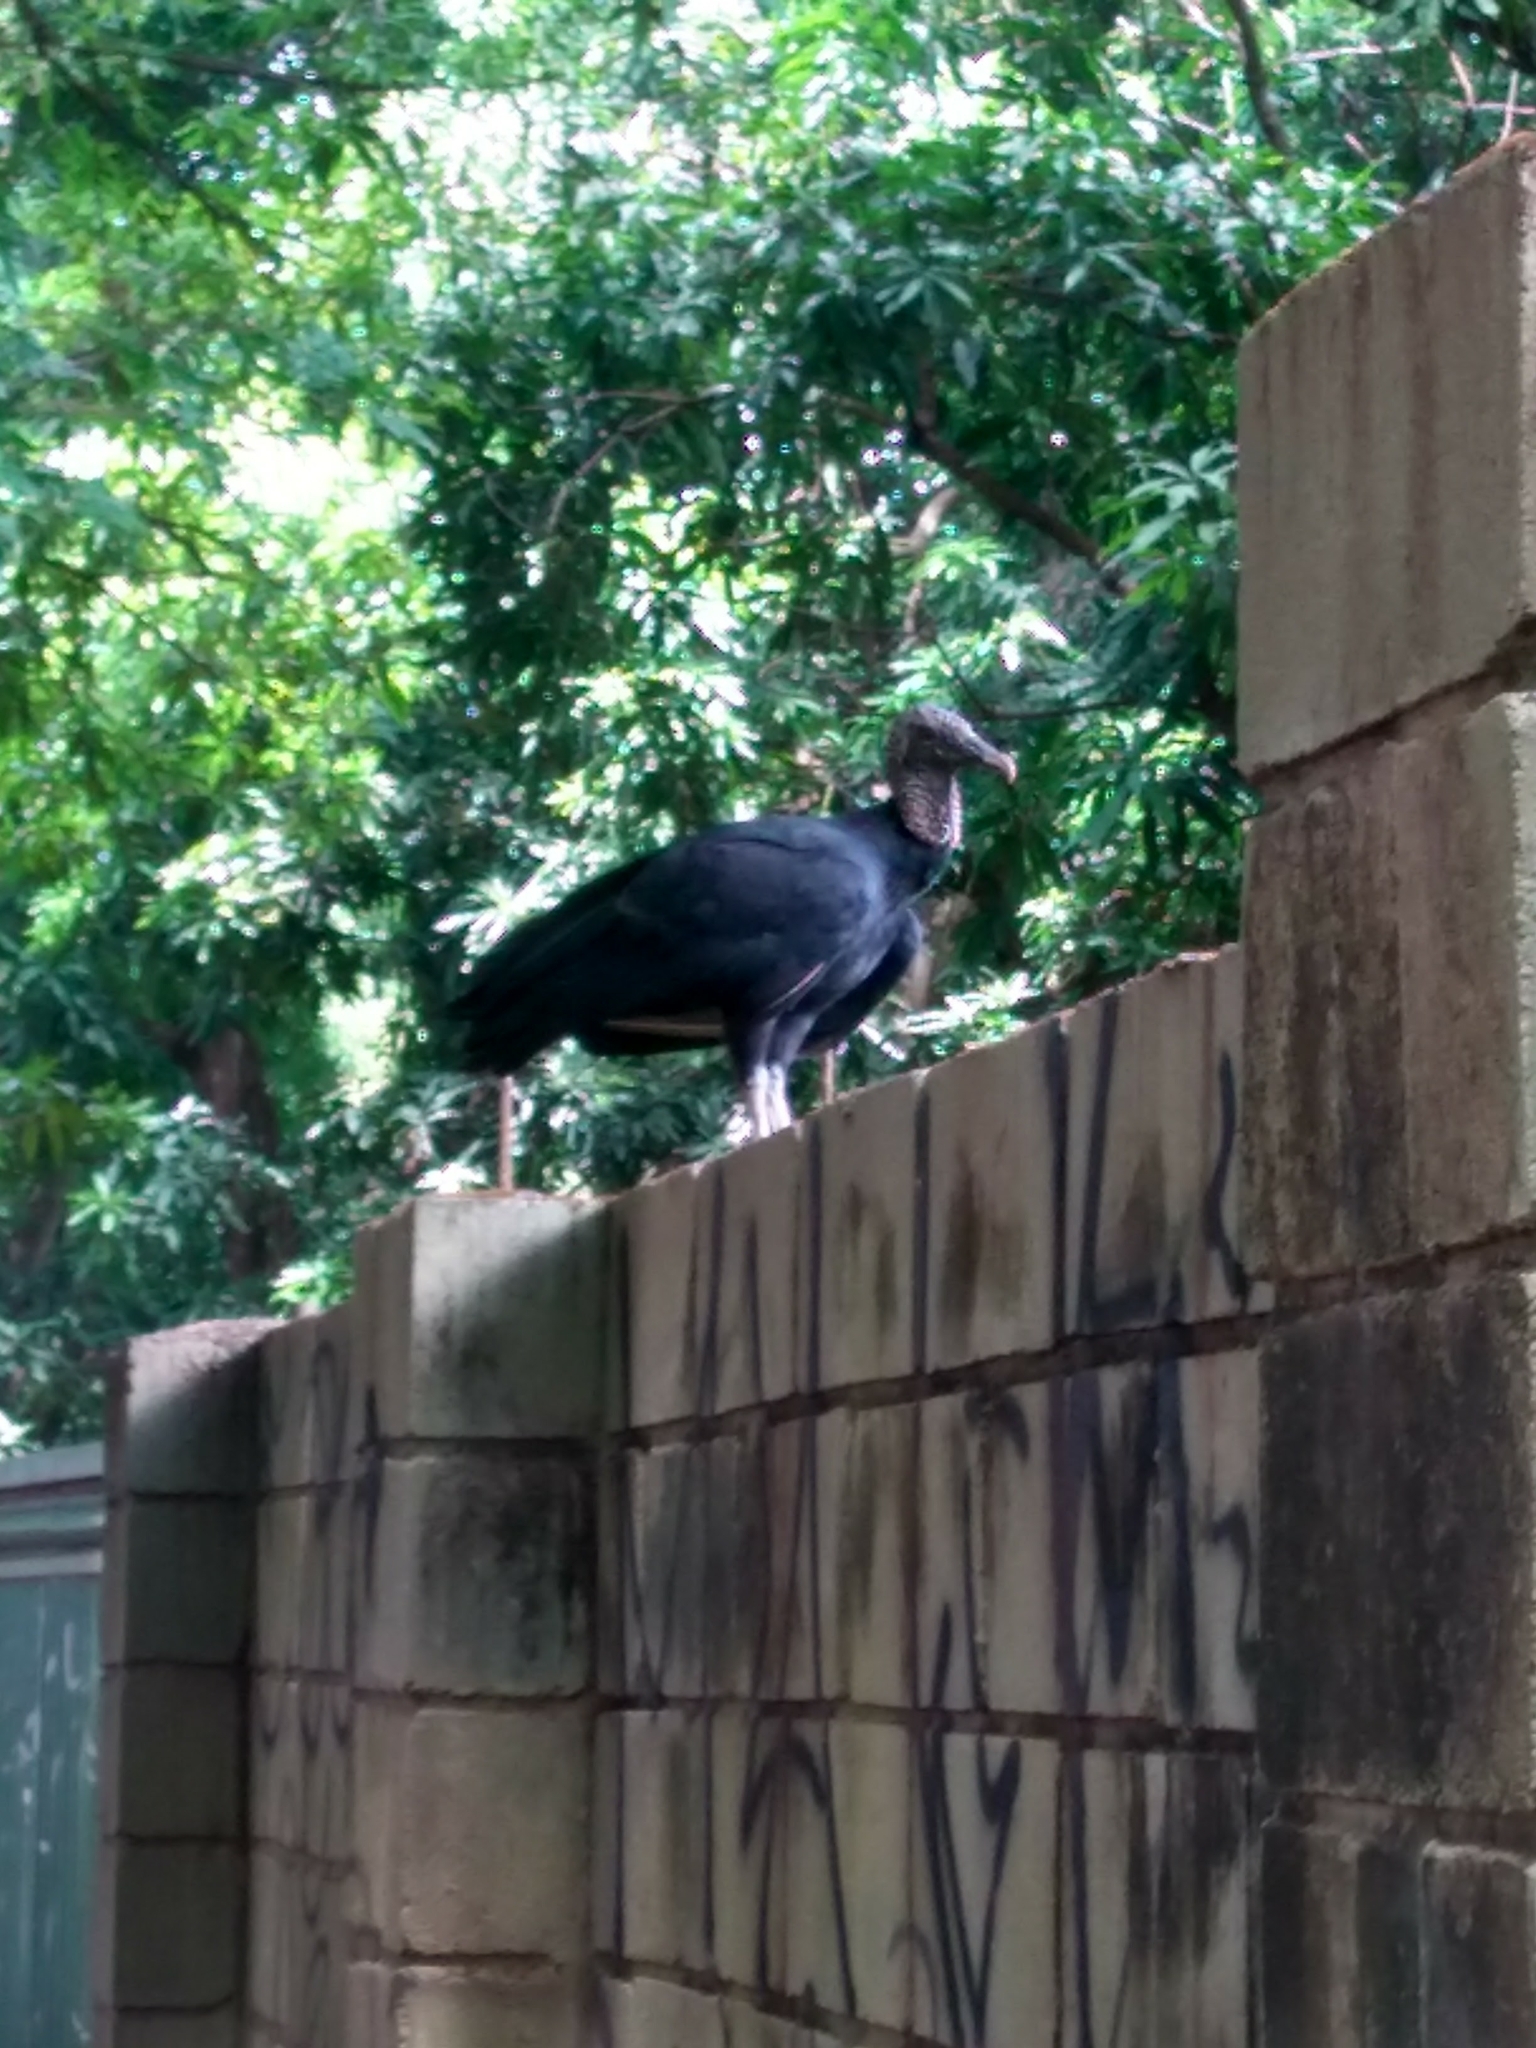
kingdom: Animalia
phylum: Chordata
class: Aves
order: Accipitriformes
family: Cathartidae
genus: Coragyps
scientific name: Coragyps atratus
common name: Black vulture
